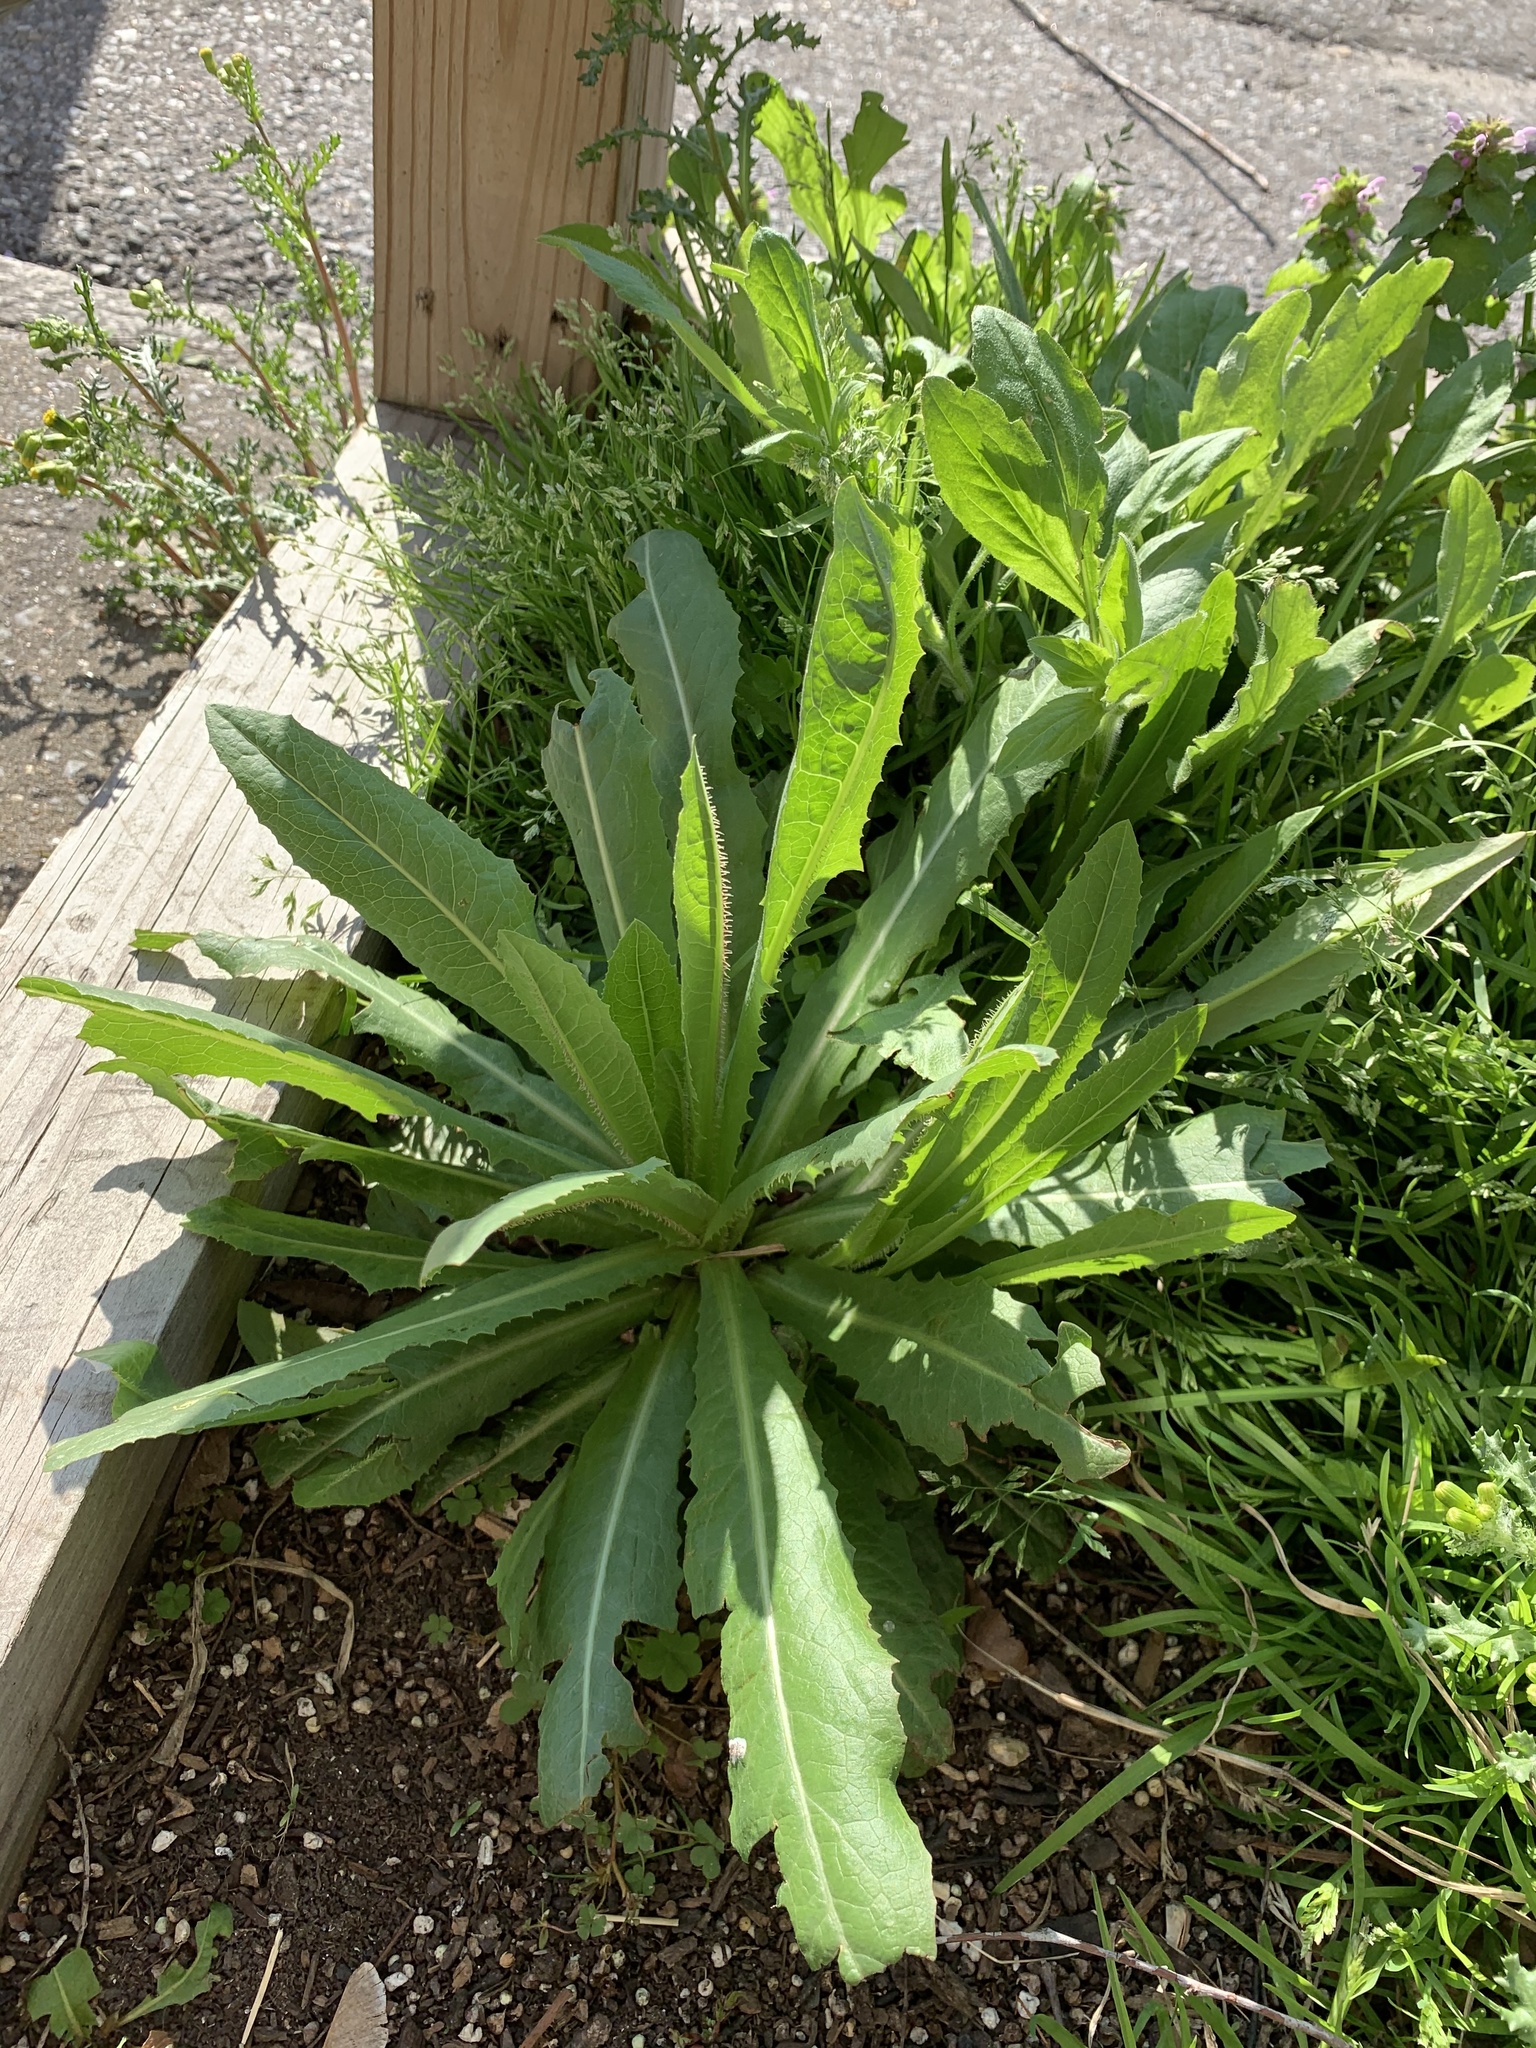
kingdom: Plantae
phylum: Tracheophyta
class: Magnoliopsida
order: Asterales
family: Asteraceae
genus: Lactuca
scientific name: Lactuca serriola
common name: Prickly lettuce
